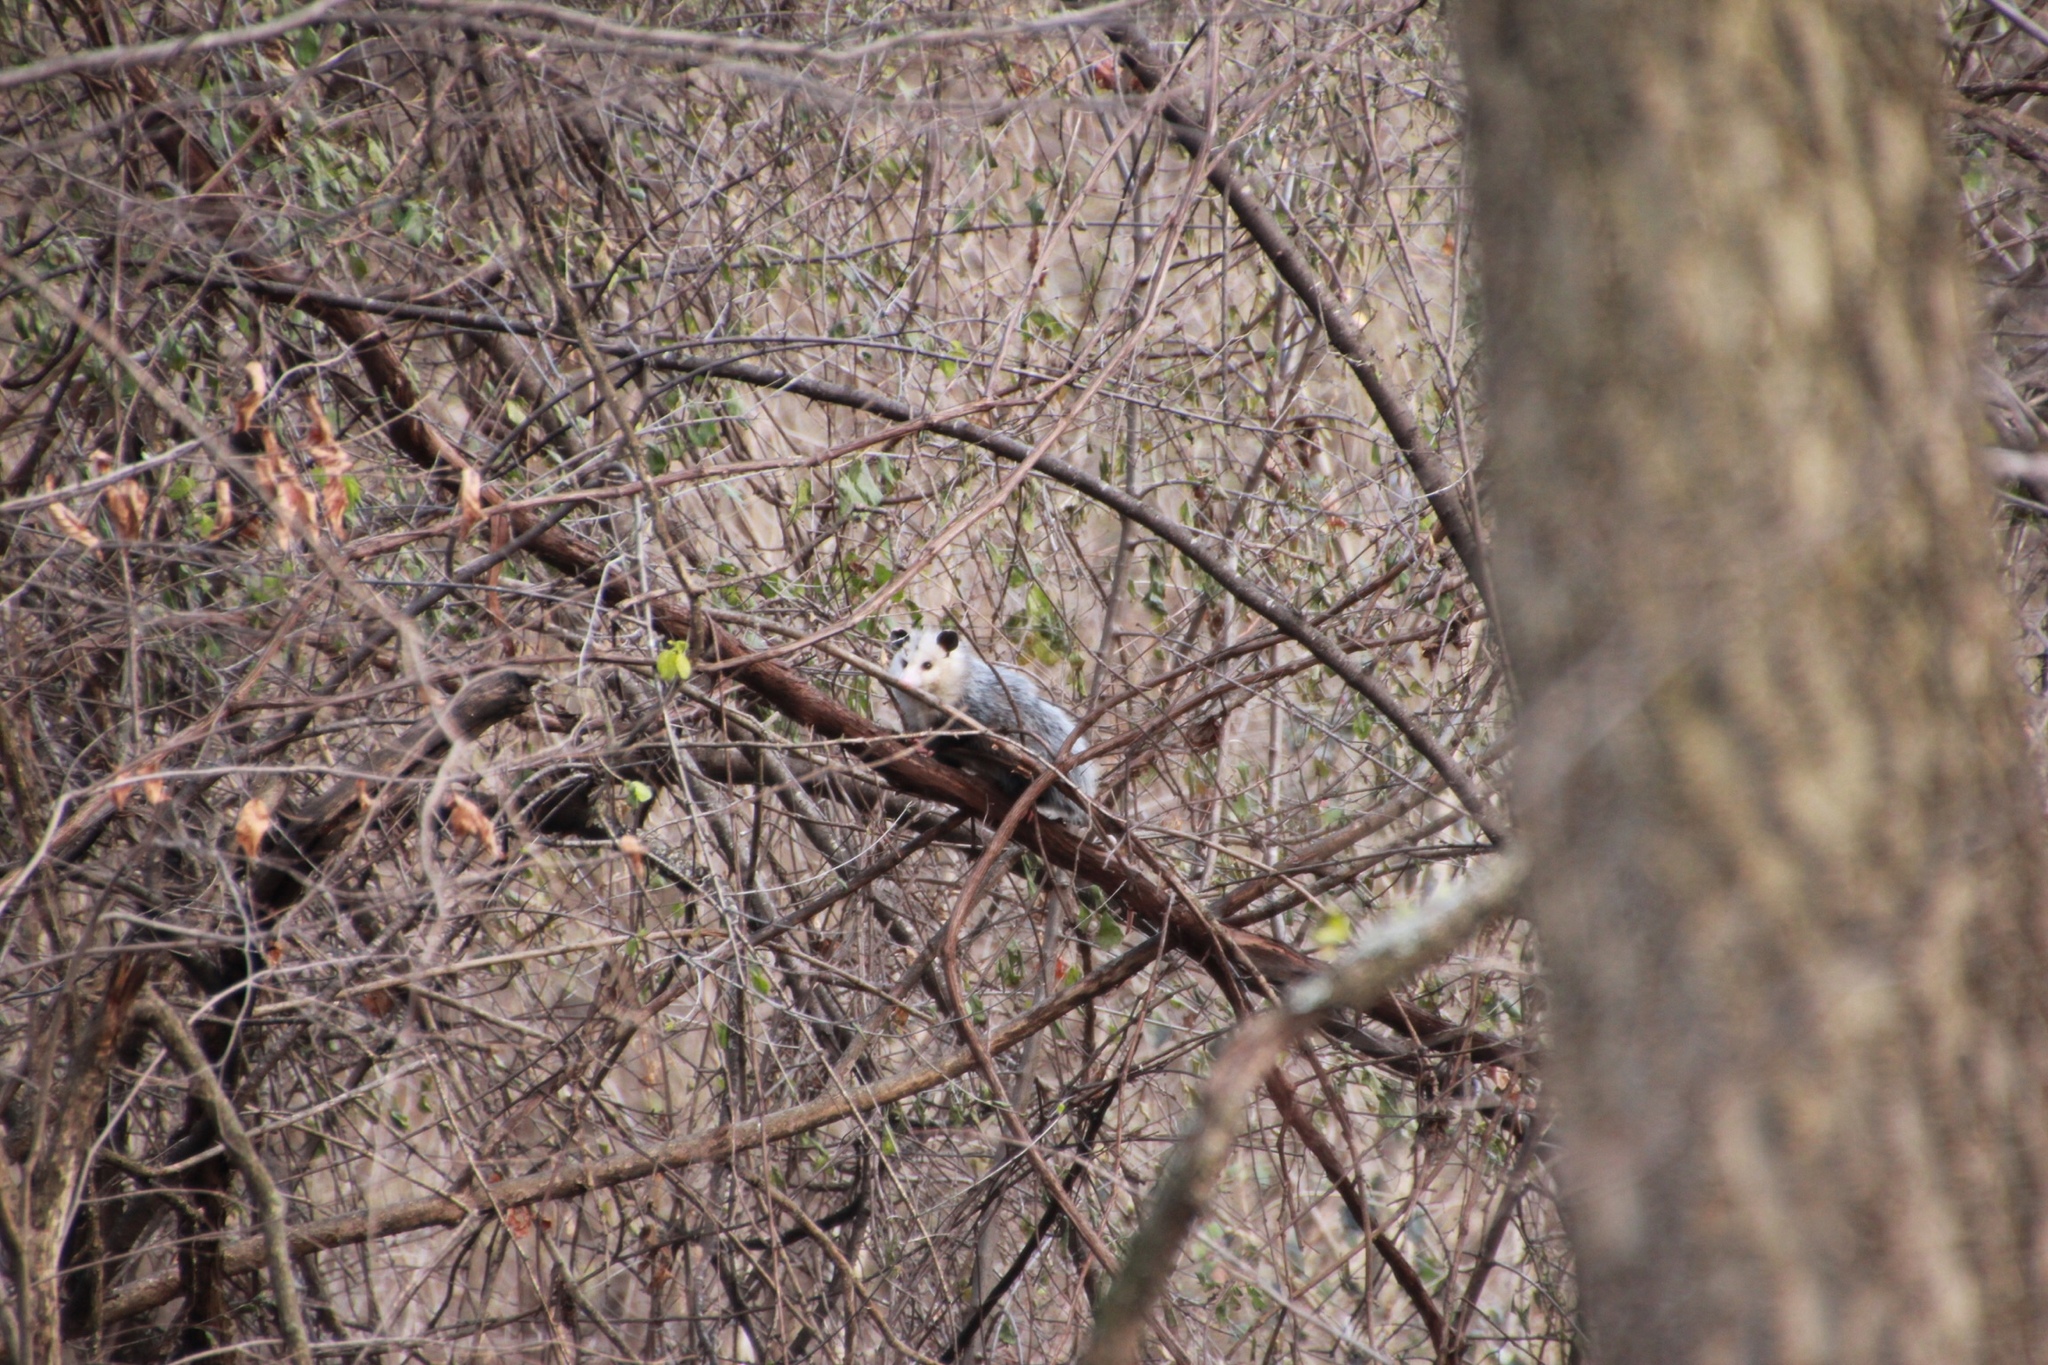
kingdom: Animalia
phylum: Chordata
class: Mammalia
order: Didelphimorphia
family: Didelphidae
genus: Didelphis
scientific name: Didelphis virginiana
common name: Virginia opossum
